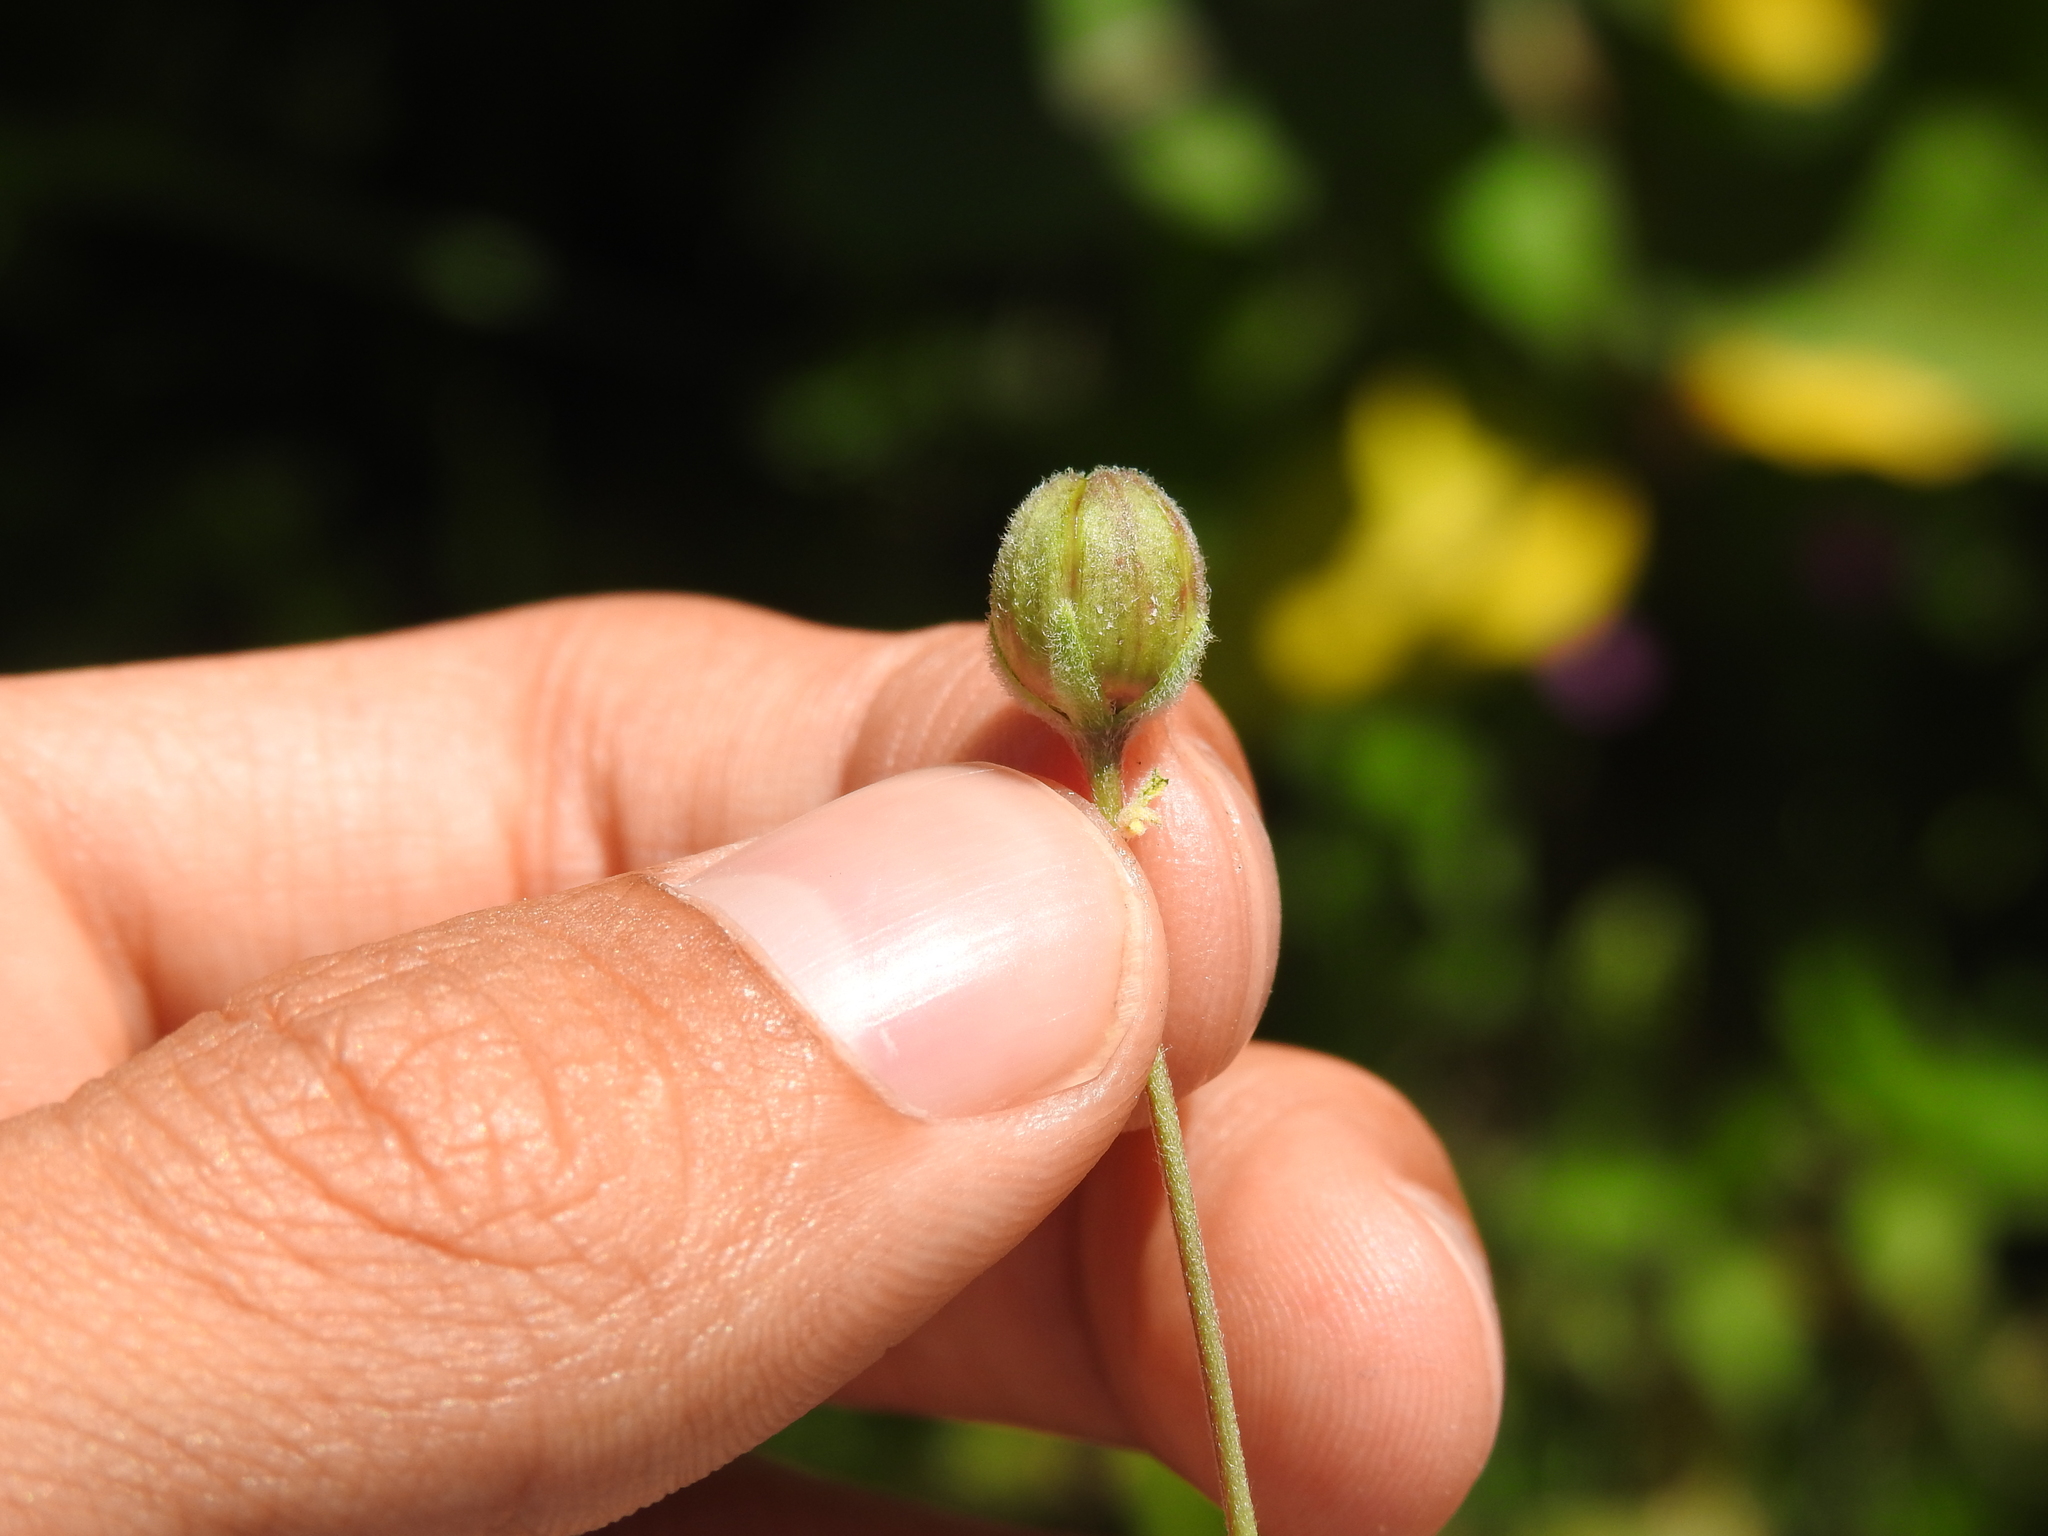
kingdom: Animalia
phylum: Arthropoda
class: Insecta
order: Diptera
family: Cecidomyiidae
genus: Prodiplosis
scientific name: Prodiplosis floricola
